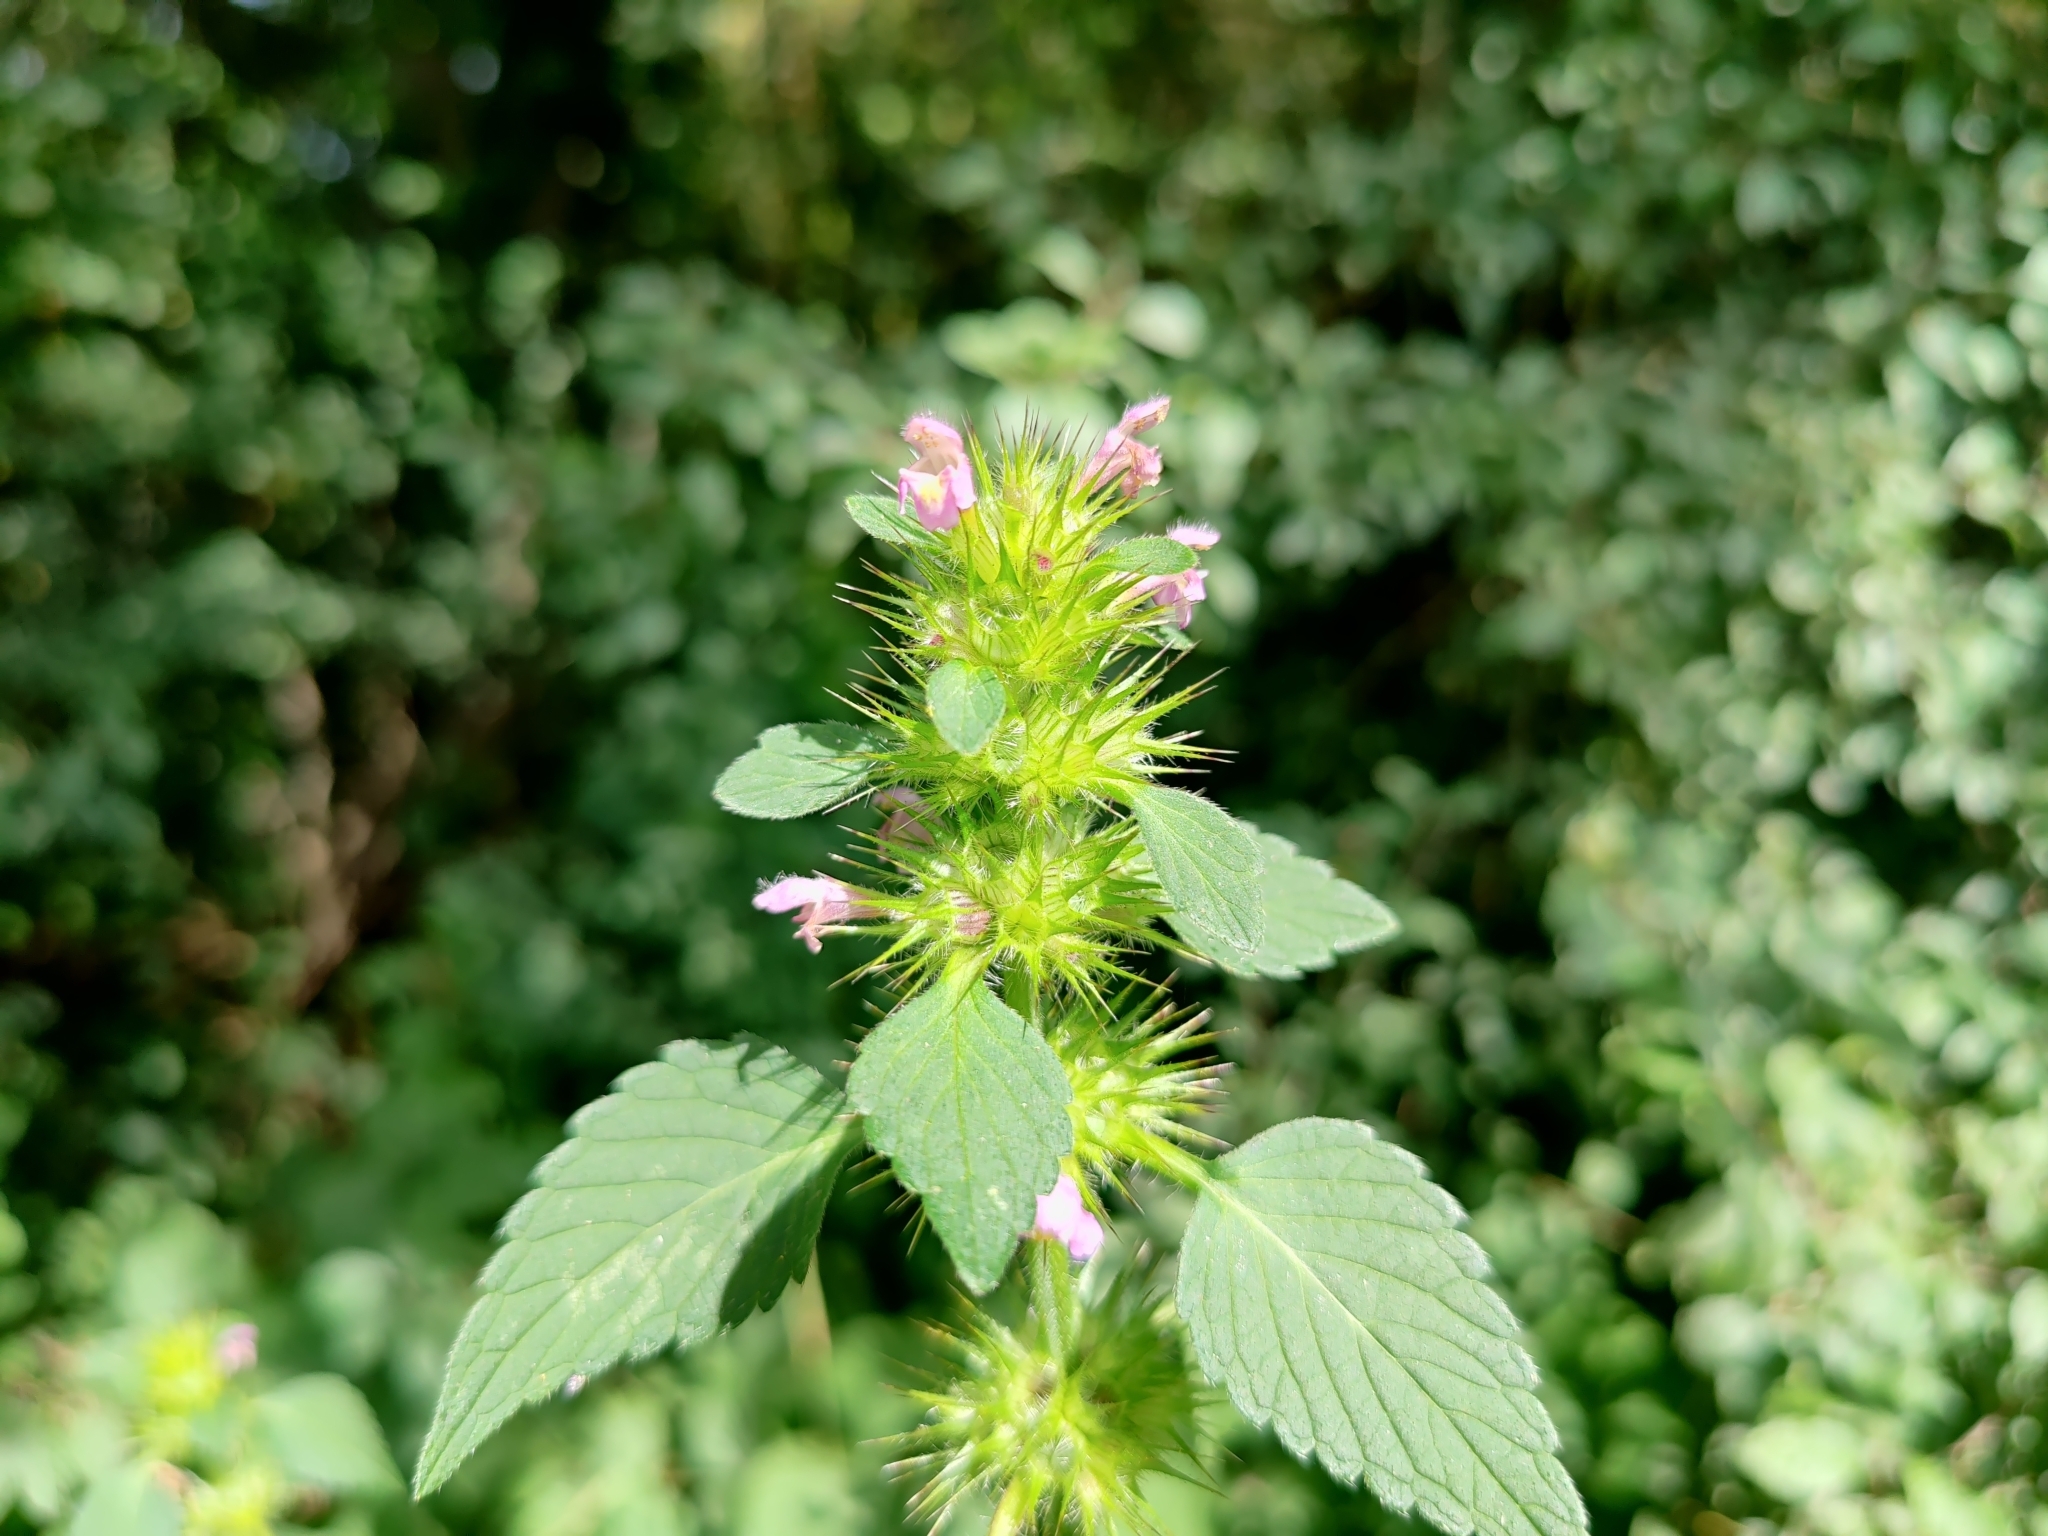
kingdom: Plantae
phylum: Tracheophyta
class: Magnoliopsida
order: Lamiales
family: Lamiaceae
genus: Galeopsis
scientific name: Galeopsis tetrahit
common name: Common hemp-nettle
